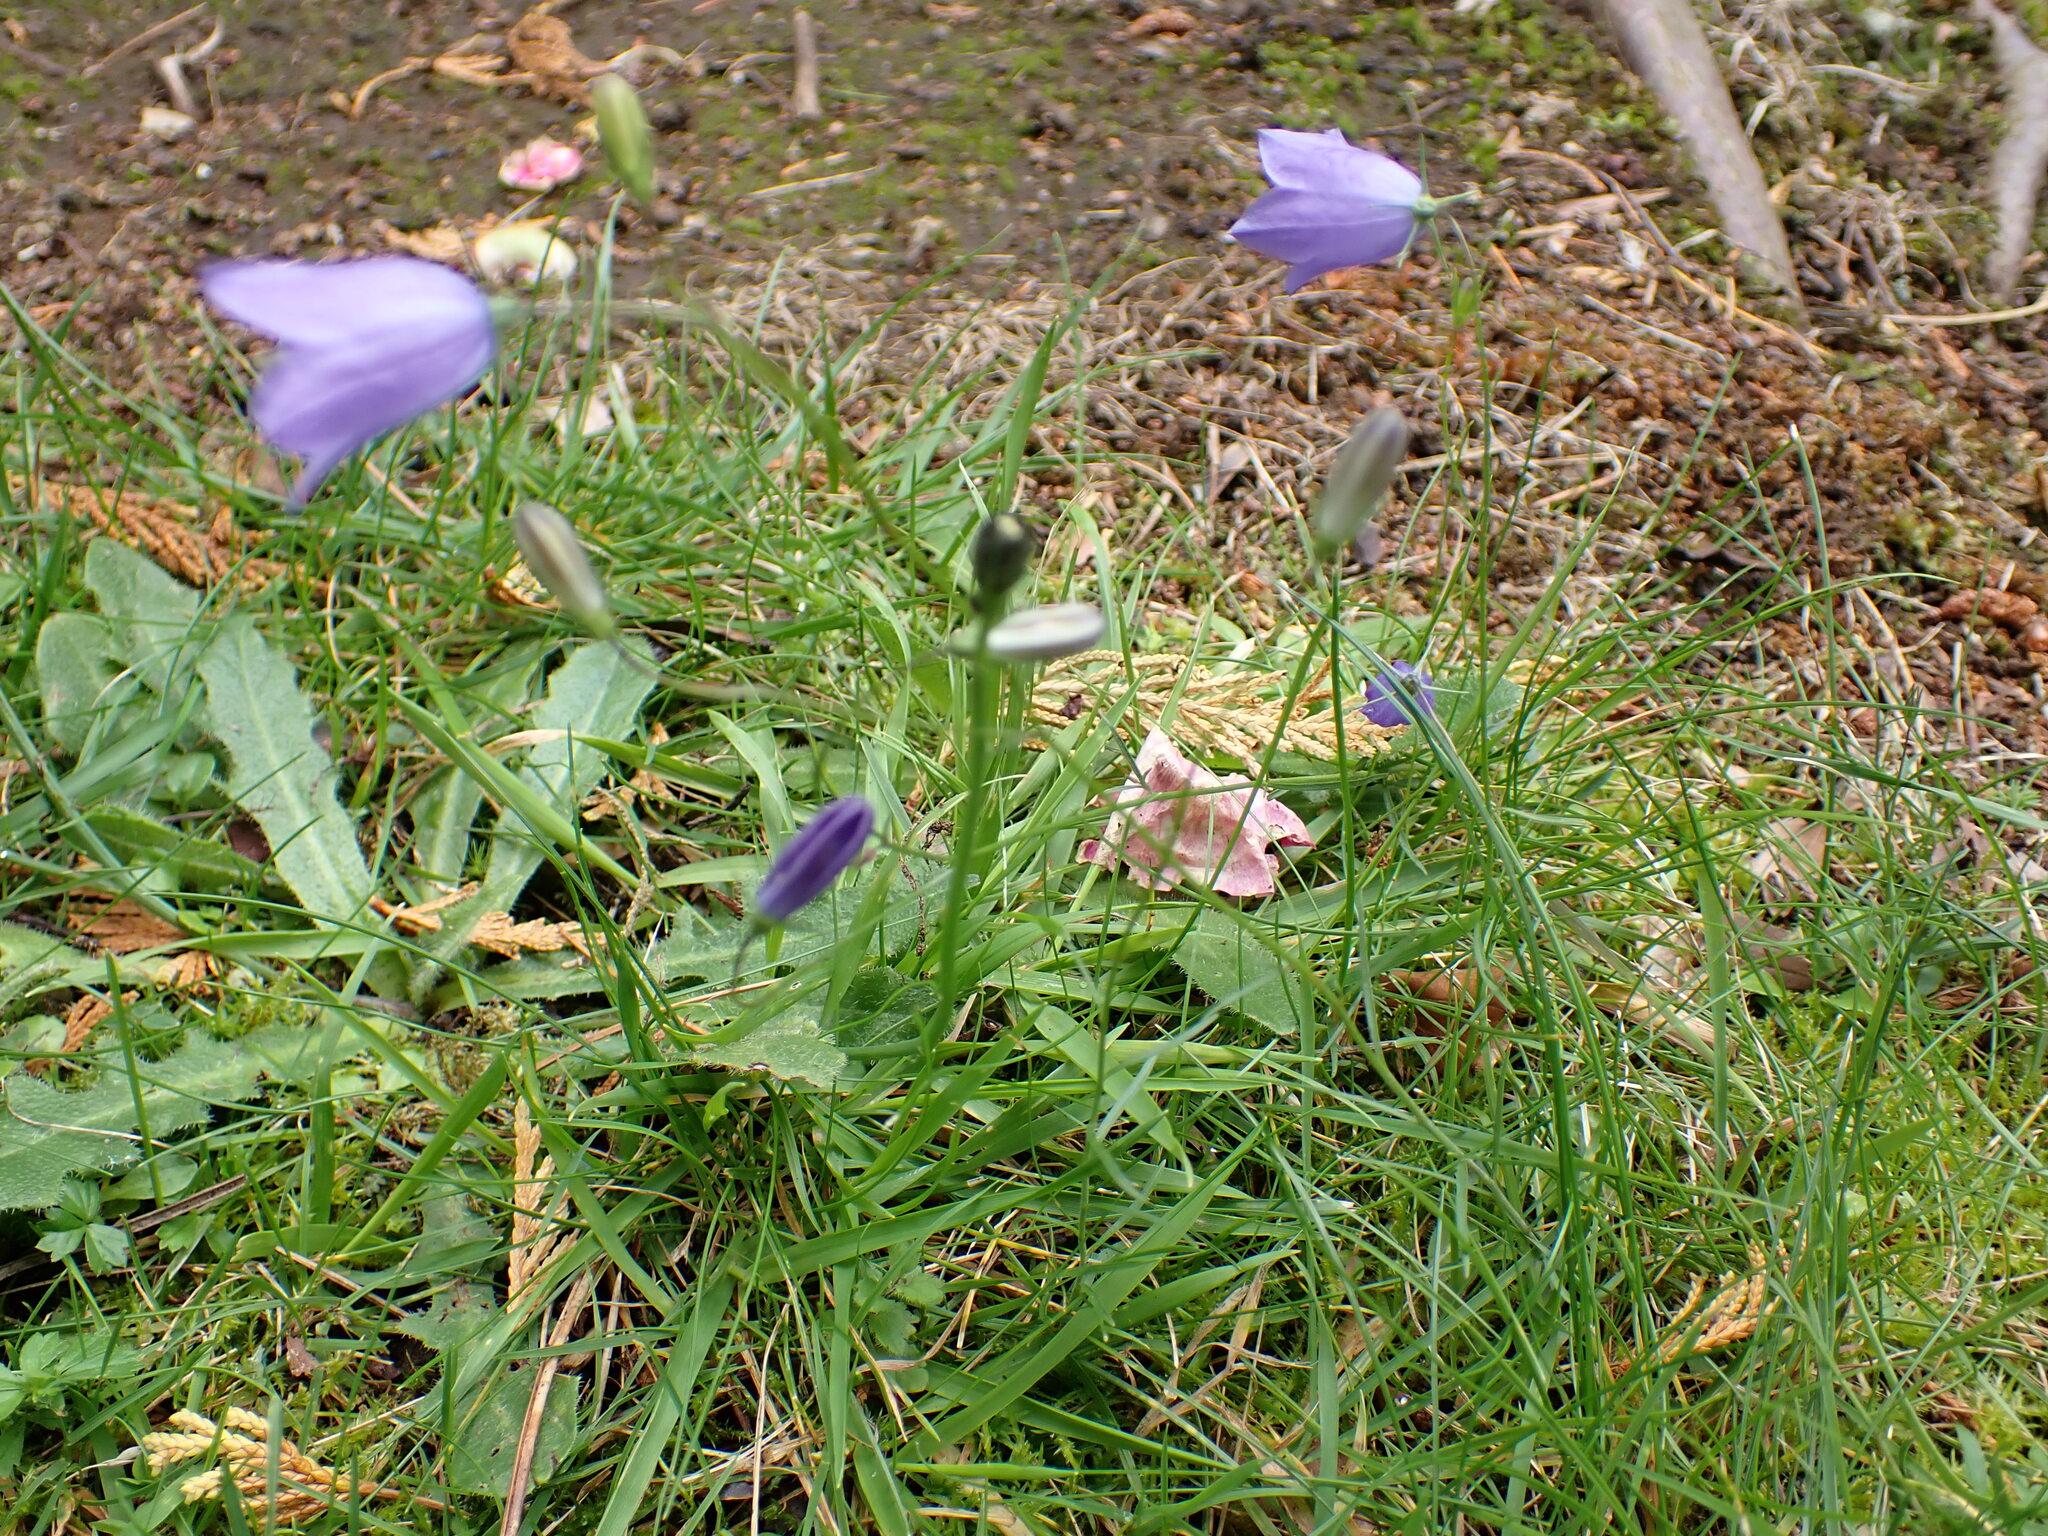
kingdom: Plantae
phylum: Tracheophyta
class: Magnoliopsida
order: Asterales
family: Campanulaceae
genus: Campanula
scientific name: Campanula rotundifolia
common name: Harebell
